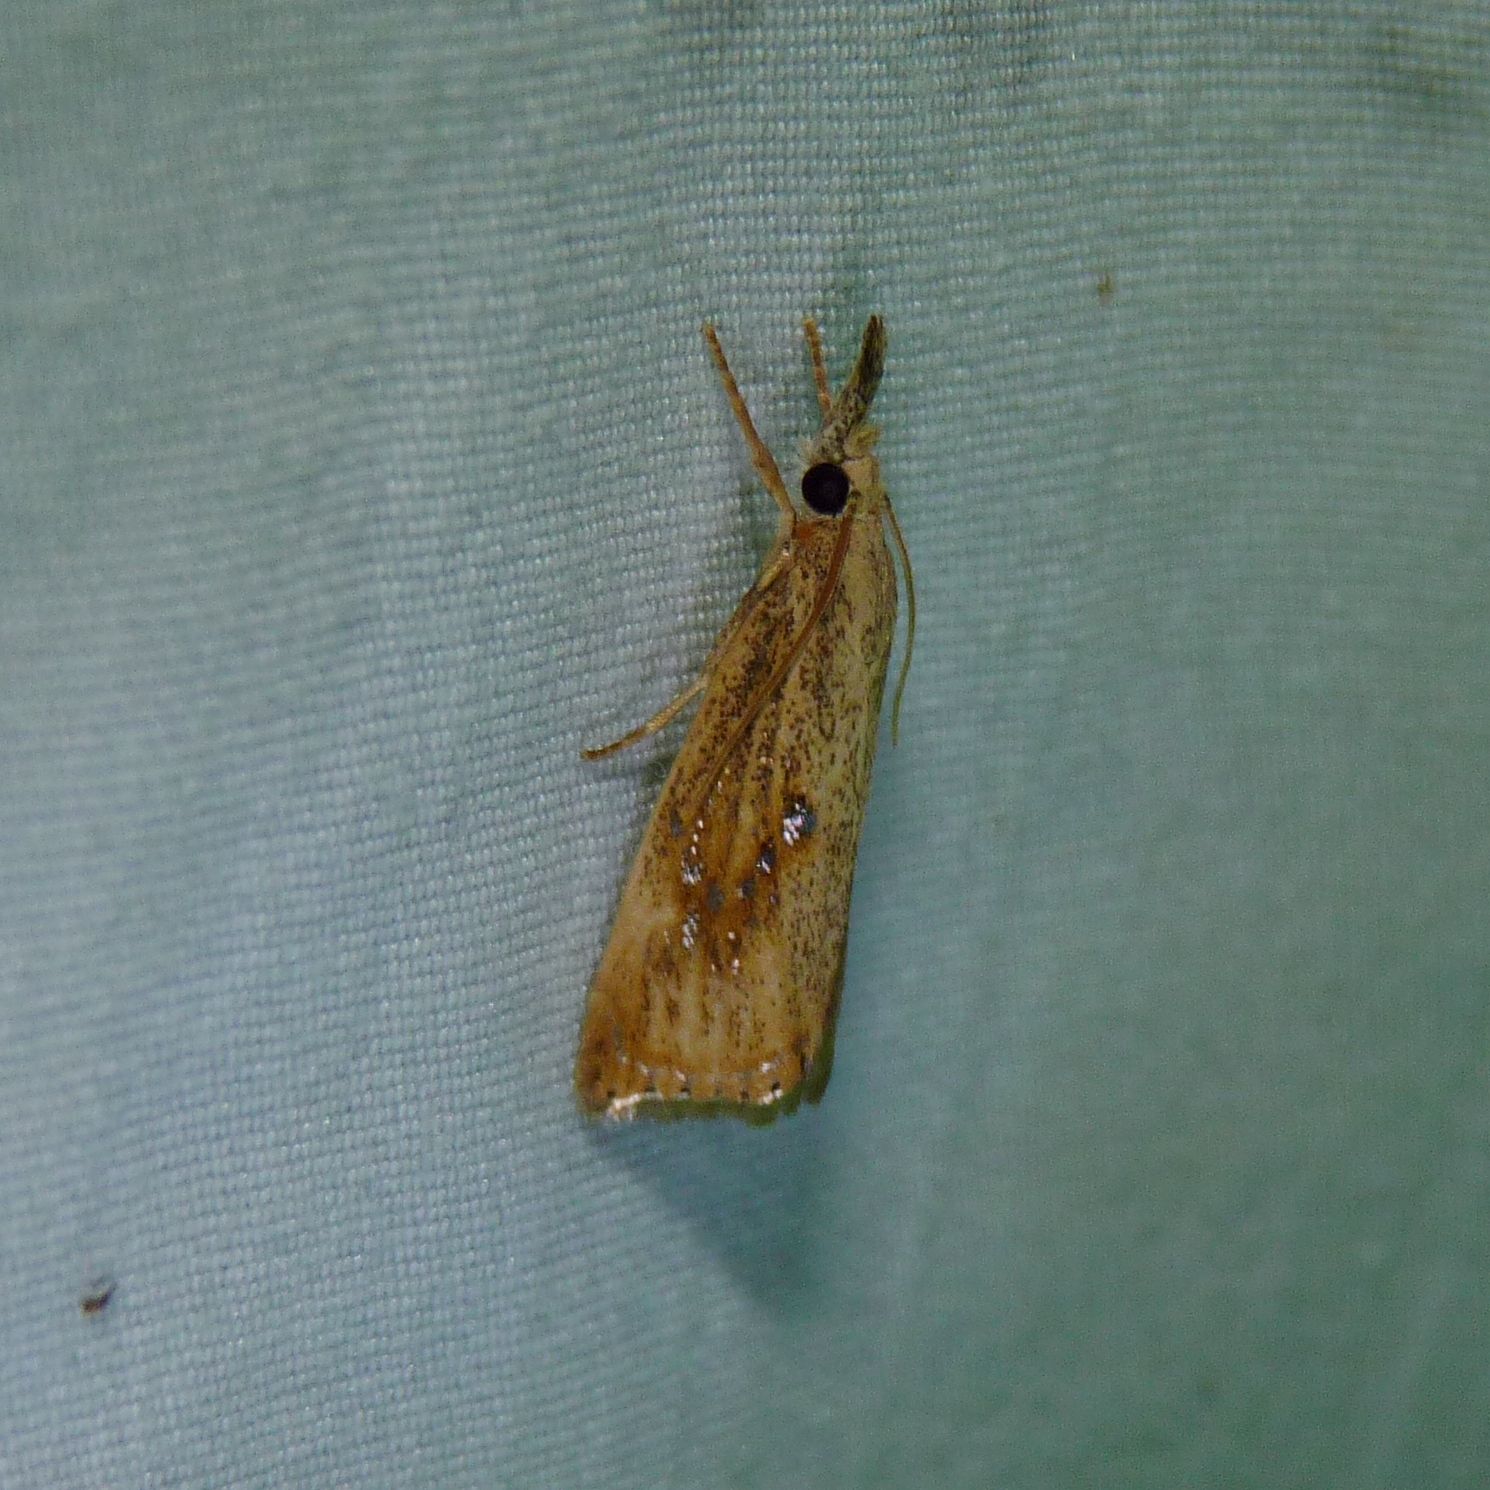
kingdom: Animalia
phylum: Arthropoda
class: Insecta
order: Lepidoptera
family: Crambidae
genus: Chilo
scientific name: Chilo plejadellus
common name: Rice stalk borer moth
